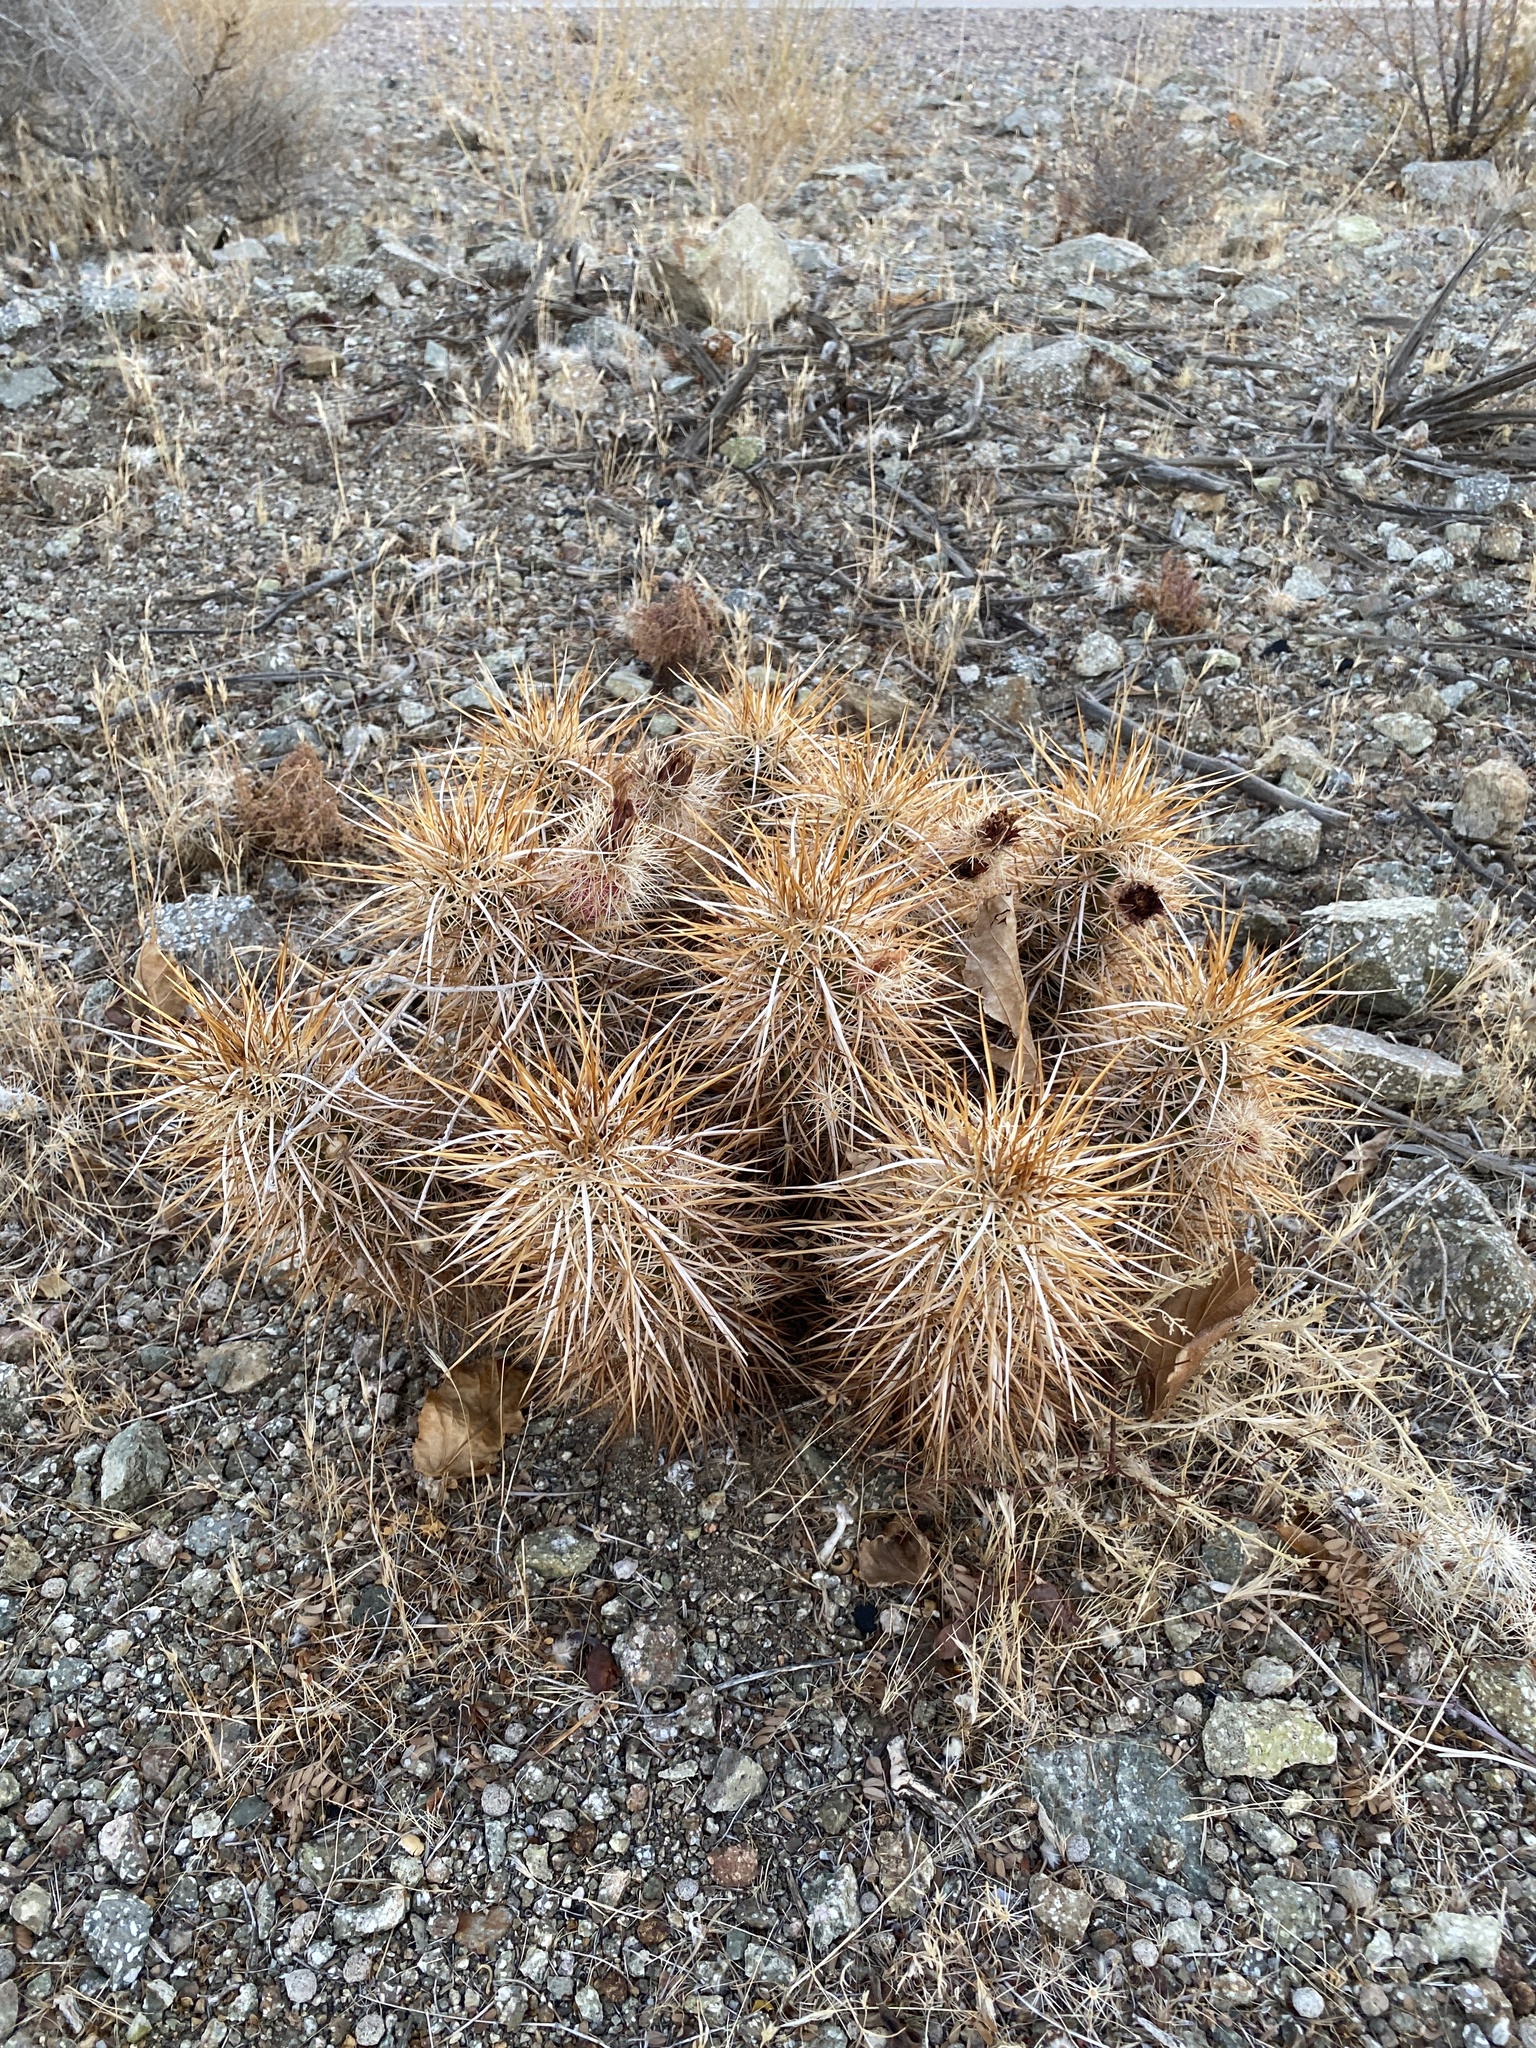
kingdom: Plantae
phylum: Tracheophyta
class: Magnoliopsida
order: Caryophyllales
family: Cactaceae
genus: Echinocereus
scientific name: Echinocereus engelmannii
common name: Engelmann's hedgehog cactus
